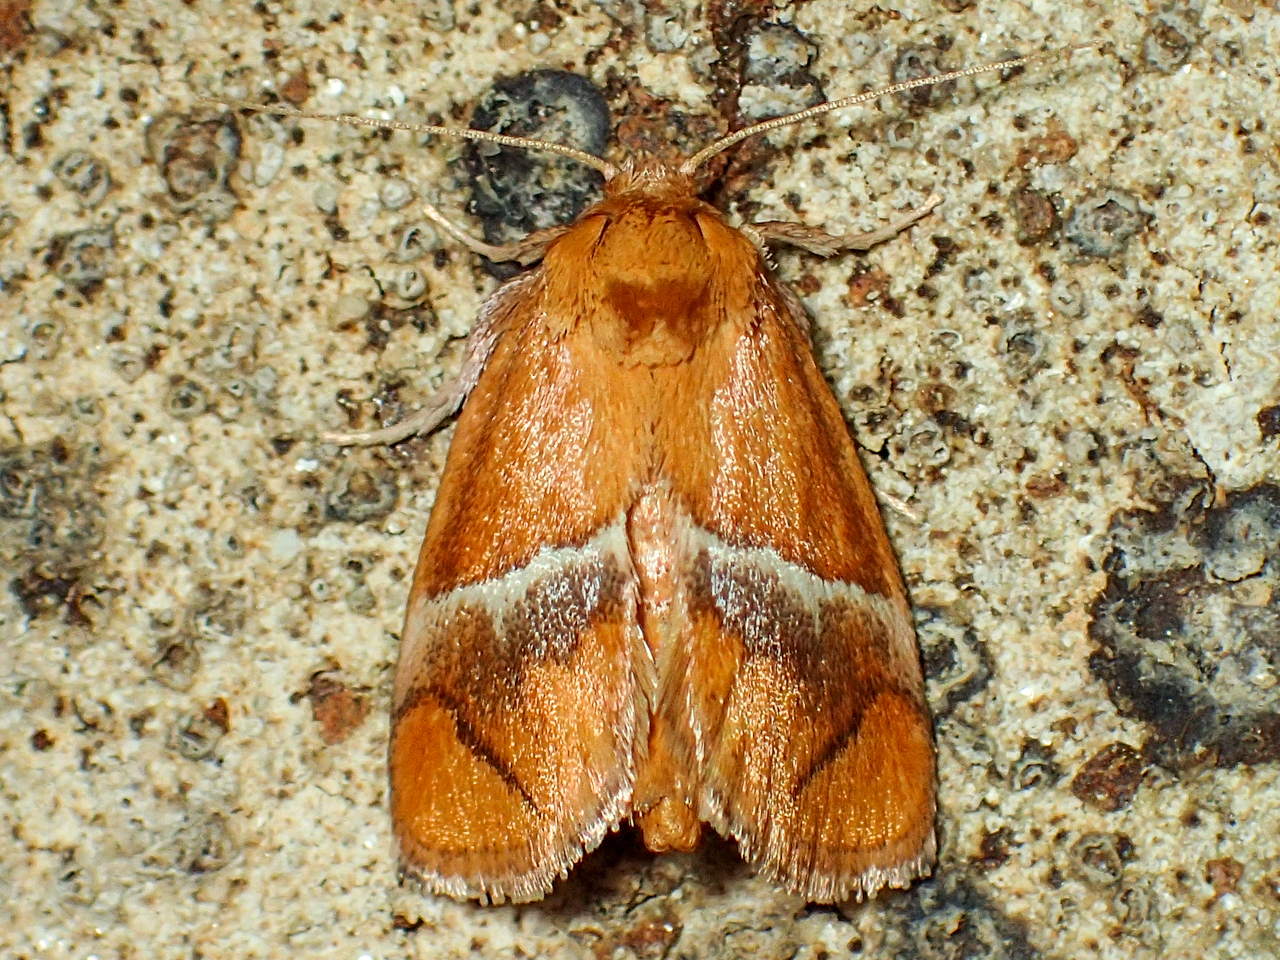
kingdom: Animalia
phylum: Arthropoda
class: Insecta
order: Lepidoptera
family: Limacodidae
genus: Lithacodes
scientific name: Lithacodes fasciola
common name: Yellow-shouldered slug moth
